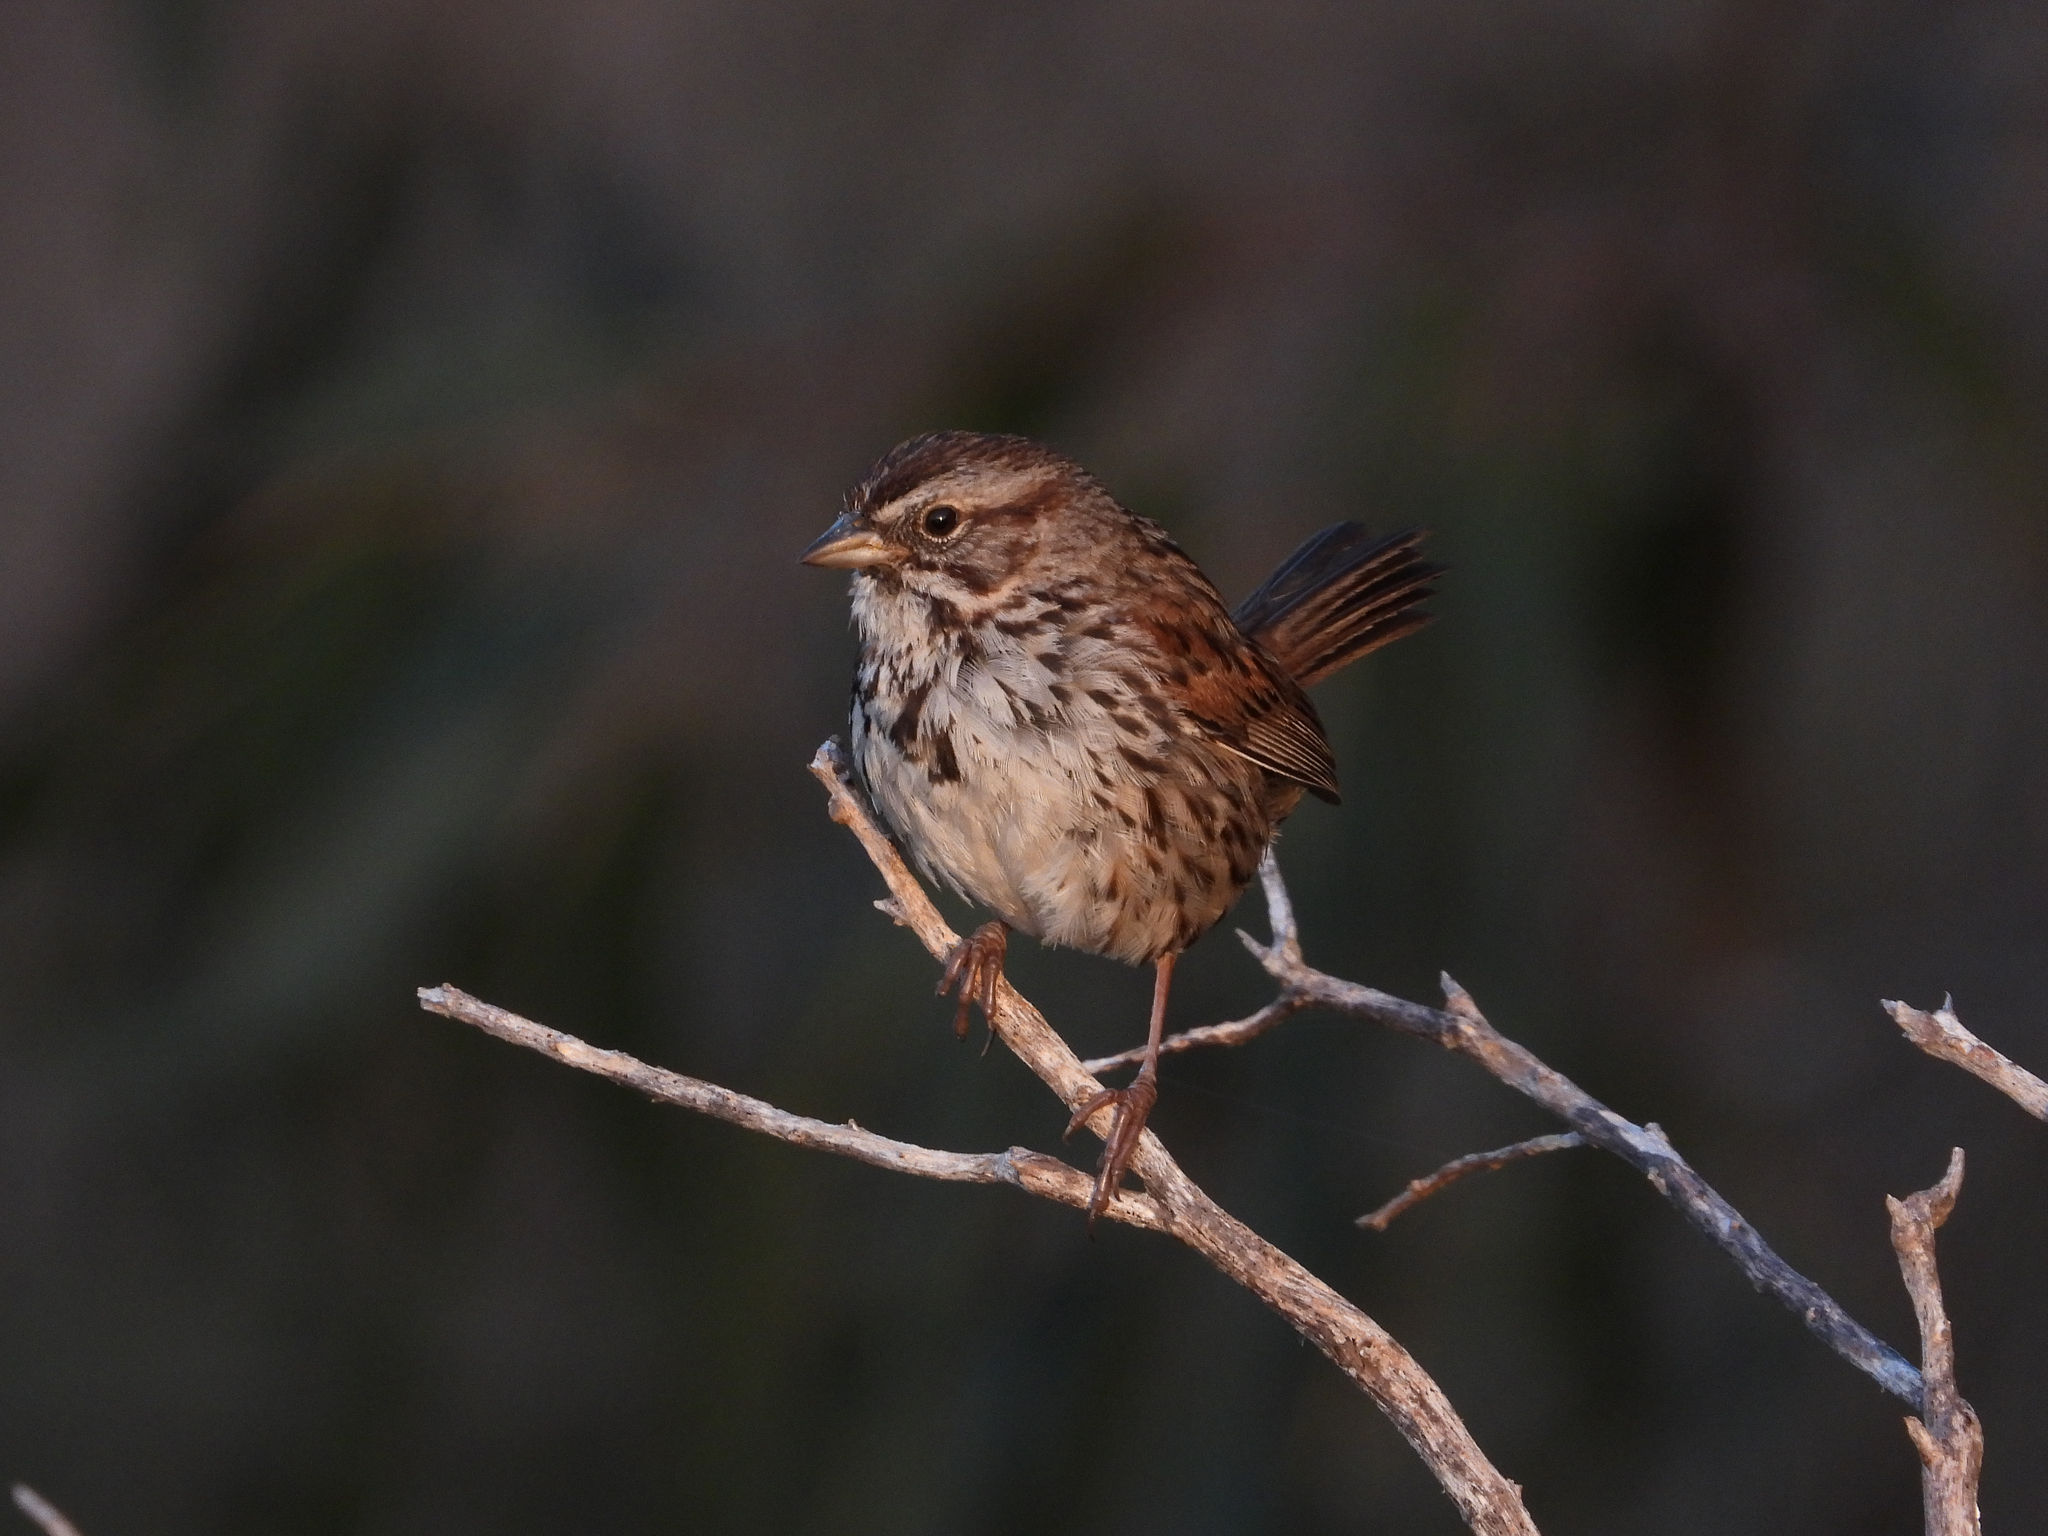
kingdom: Animalia
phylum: Chordata
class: Aves
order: Passeriformes
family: Passerellidae
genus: Melospiza
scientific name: Melospiza melodia
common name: Song sparrow
